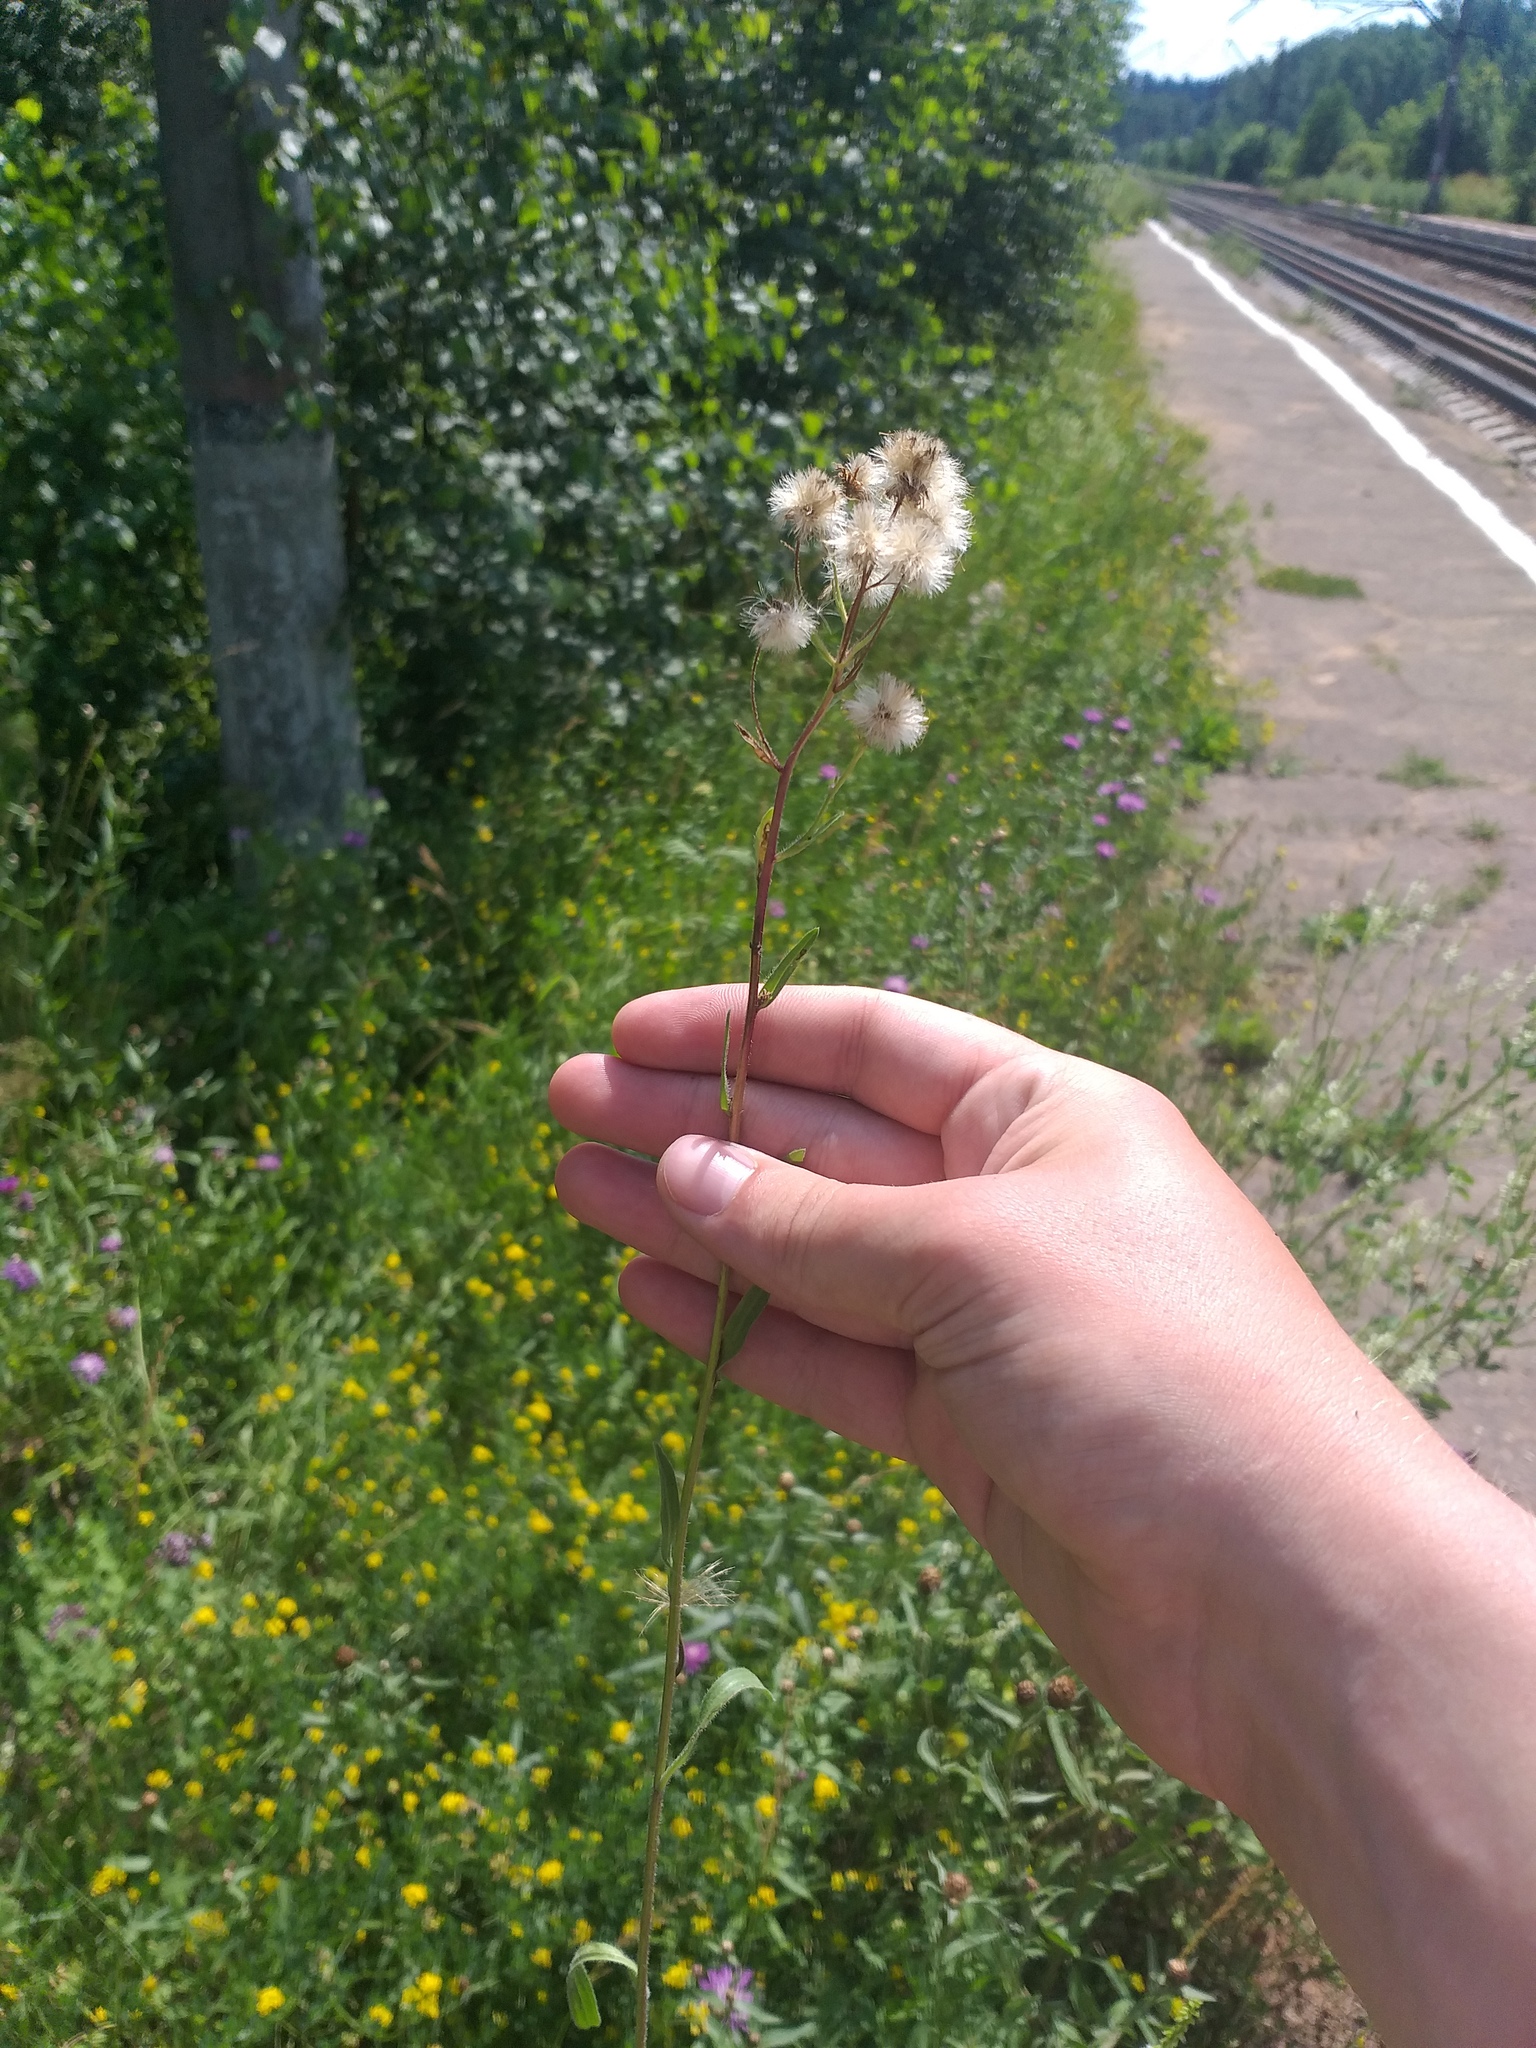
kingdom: Plantae
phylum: Tracheophyta
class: Magnoliopsida
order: Asterales
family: Asteraceae
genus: Erigeron
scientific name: Erigeron acris
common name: Blue fleabane
